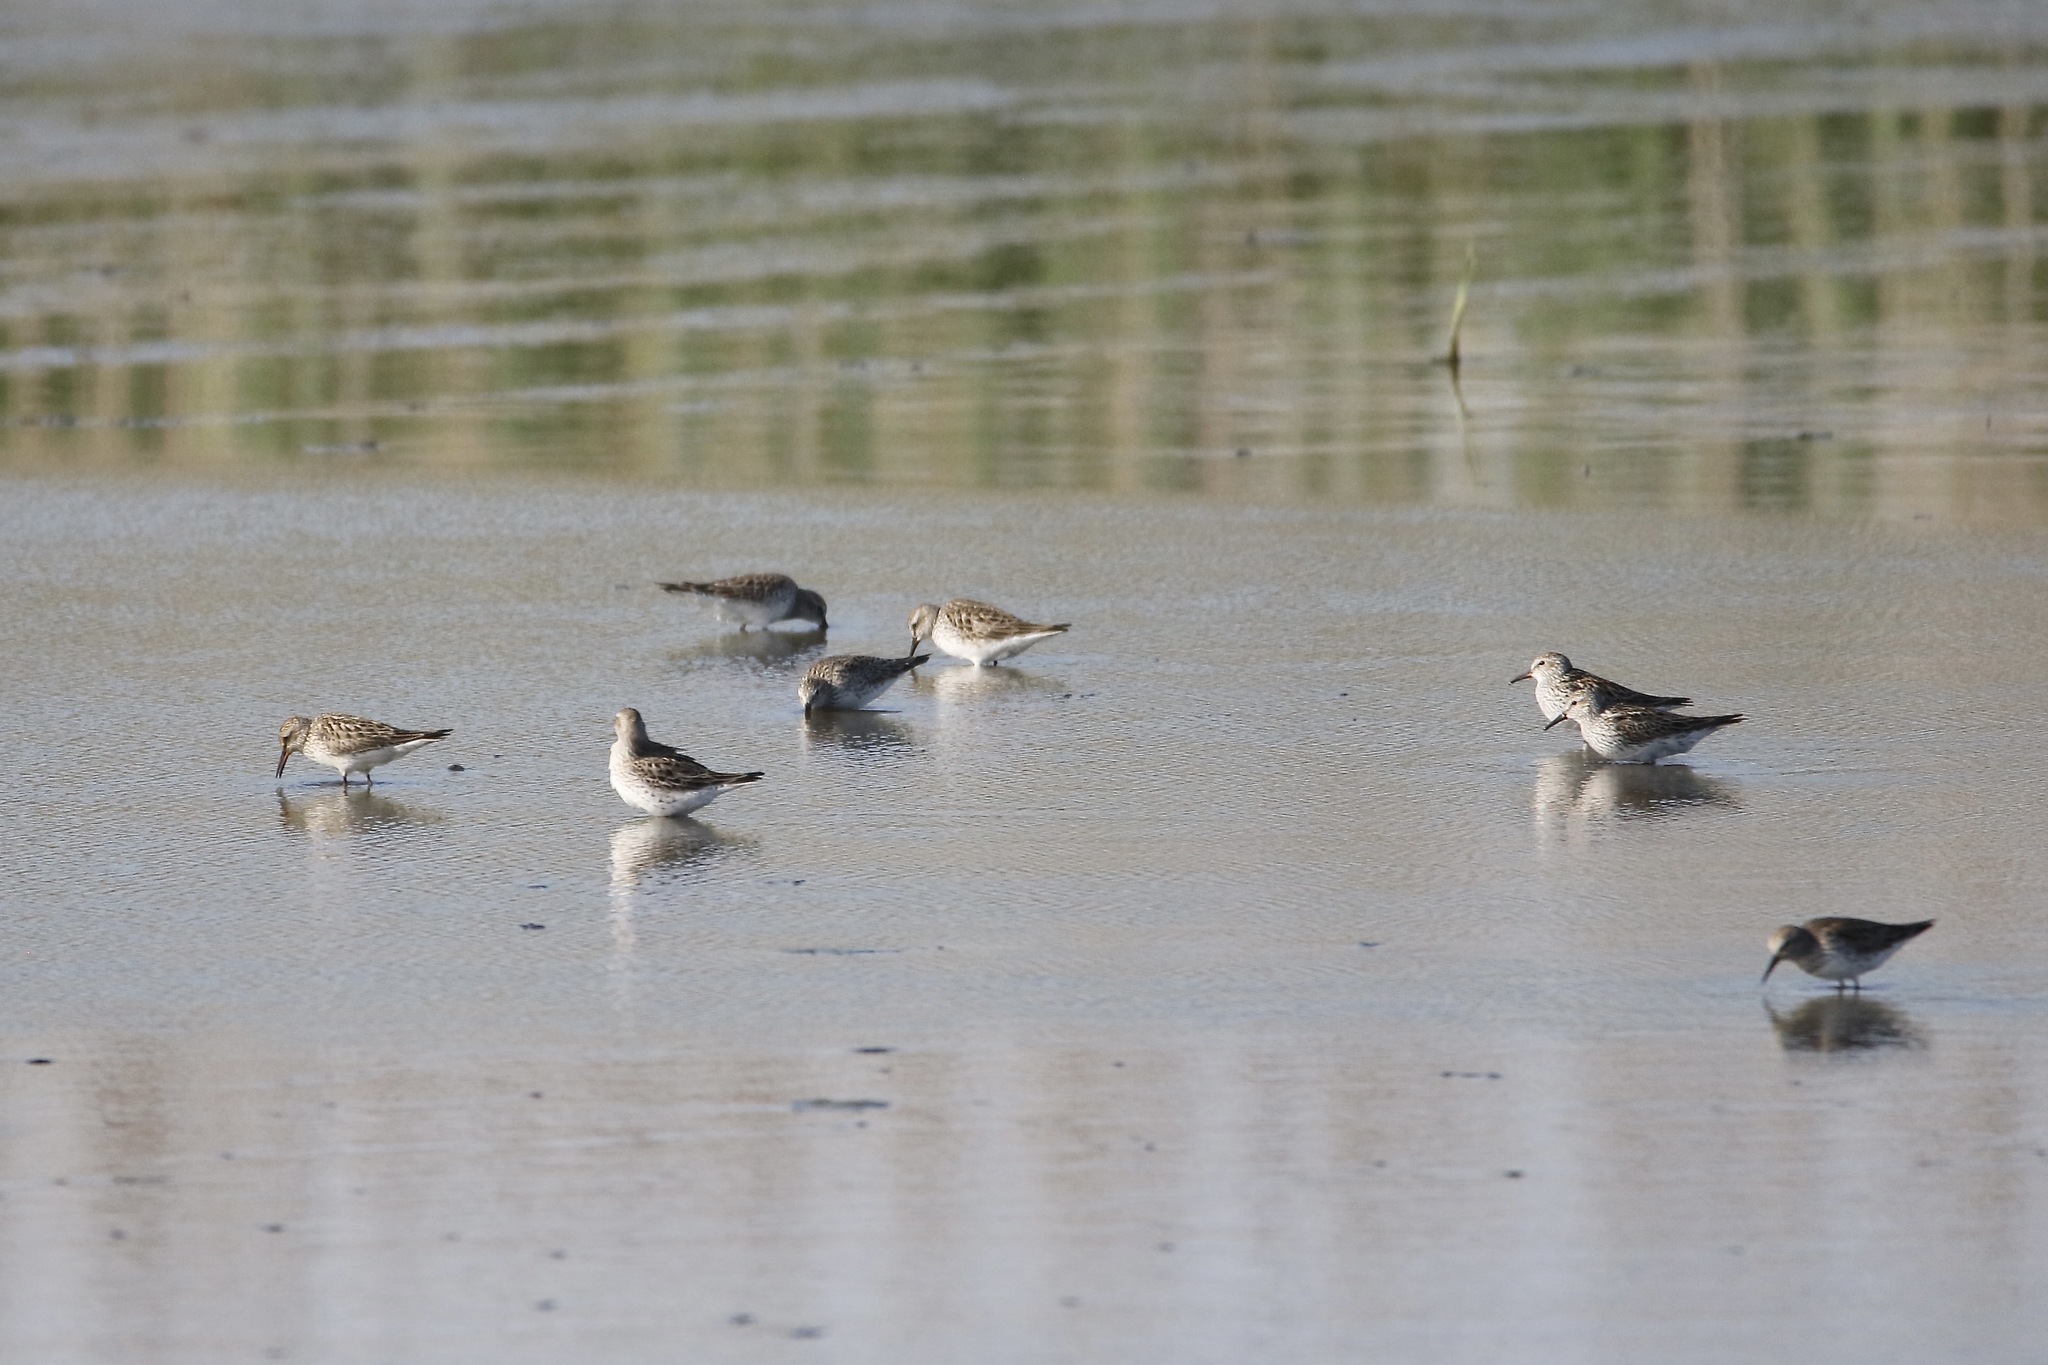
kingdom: Animalia
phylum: Chordata
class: Aves
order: Charadriiformes
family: Scolopacidae
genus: Calidris
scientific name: Calidris fuscicollis
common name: White-rumped sandpiper
